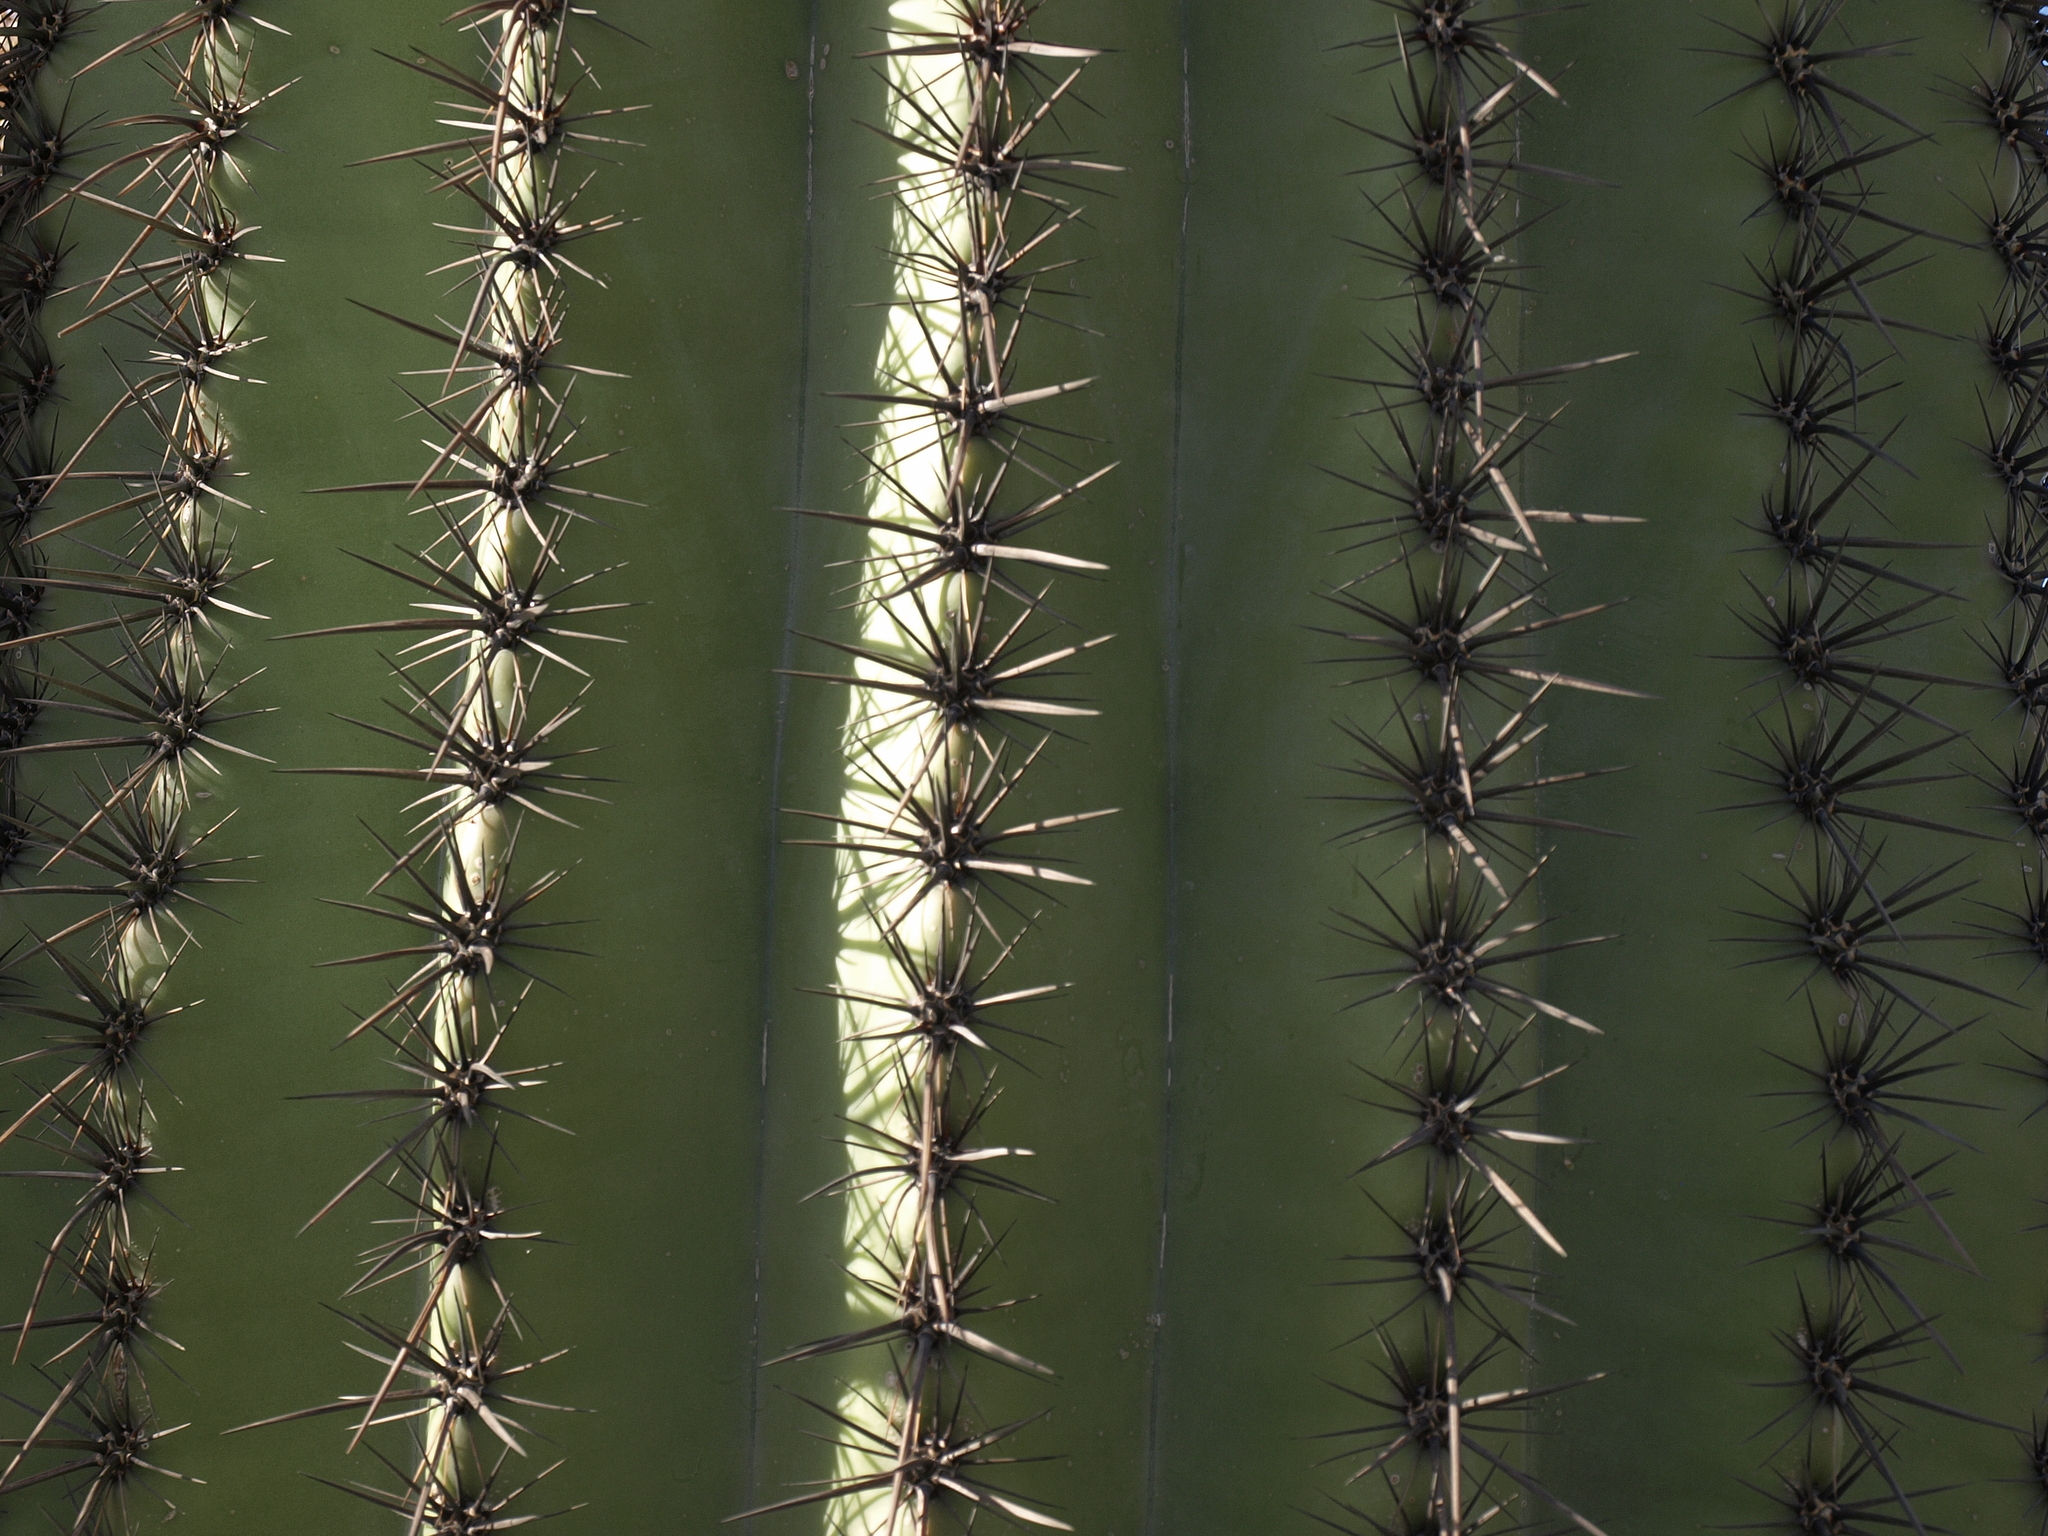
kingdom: Plantae
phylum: Tracheophyta
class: Magnoliopsida
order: Caryophyllales
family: Cactaceae
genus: Carnegiea
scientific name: Carnegiea gigantea
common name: Saguaro
